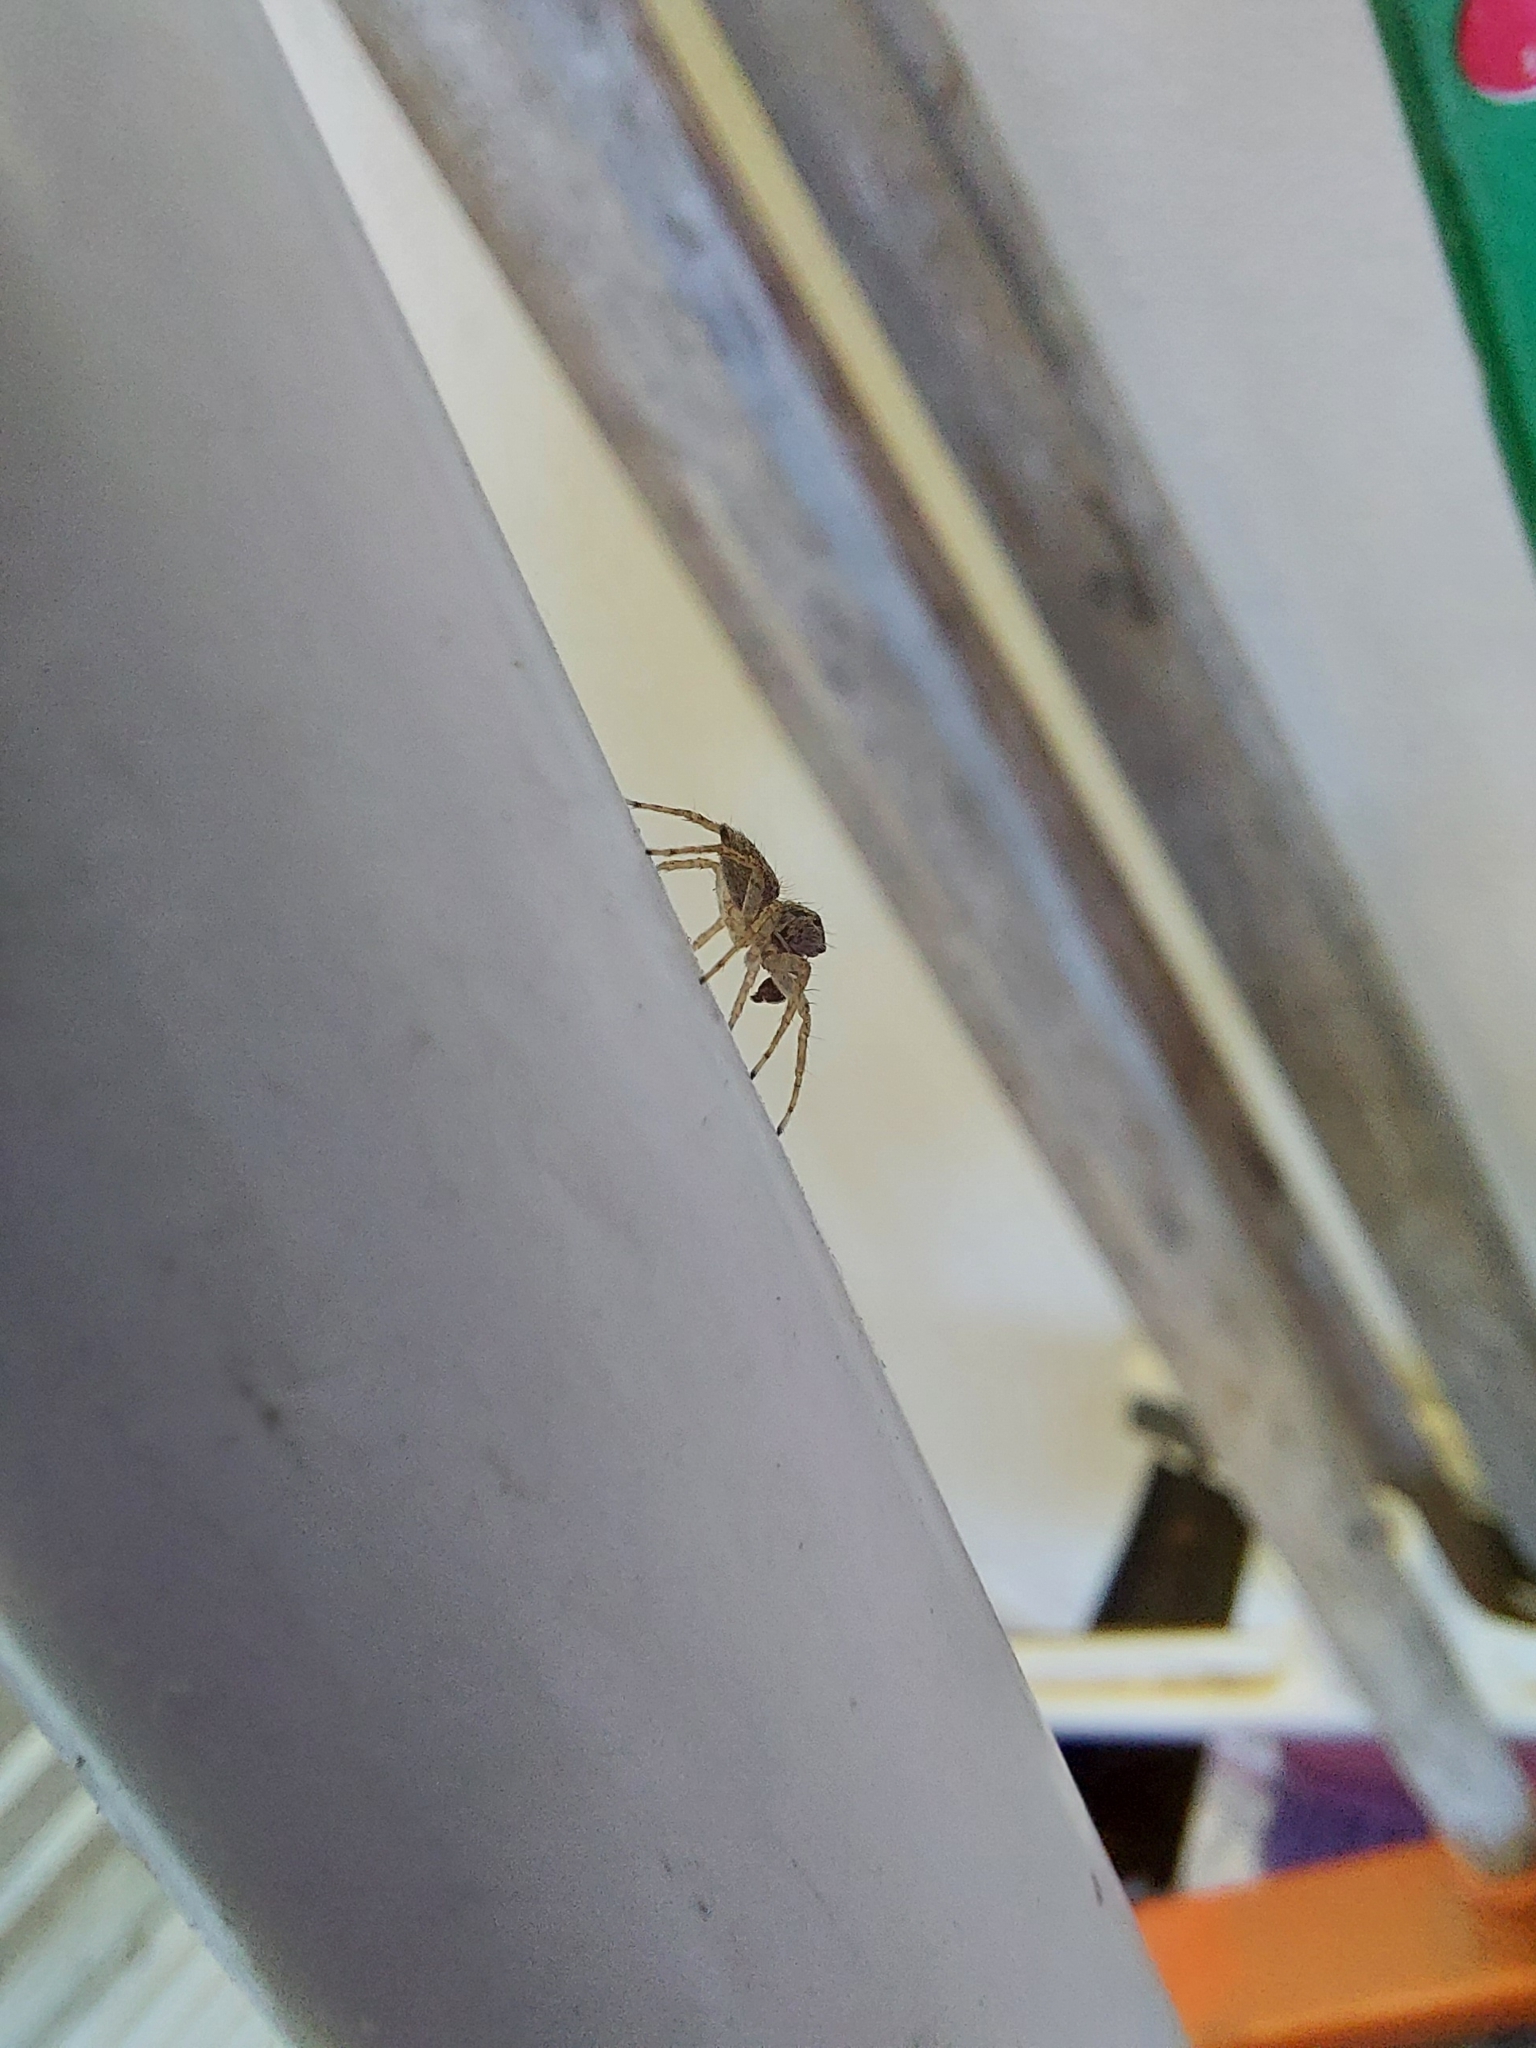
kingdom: Animalia
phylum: Arthropoda
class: Arachnida
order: Araneae
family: Salticidae
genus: Saitis
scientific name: Saitis variegatus
